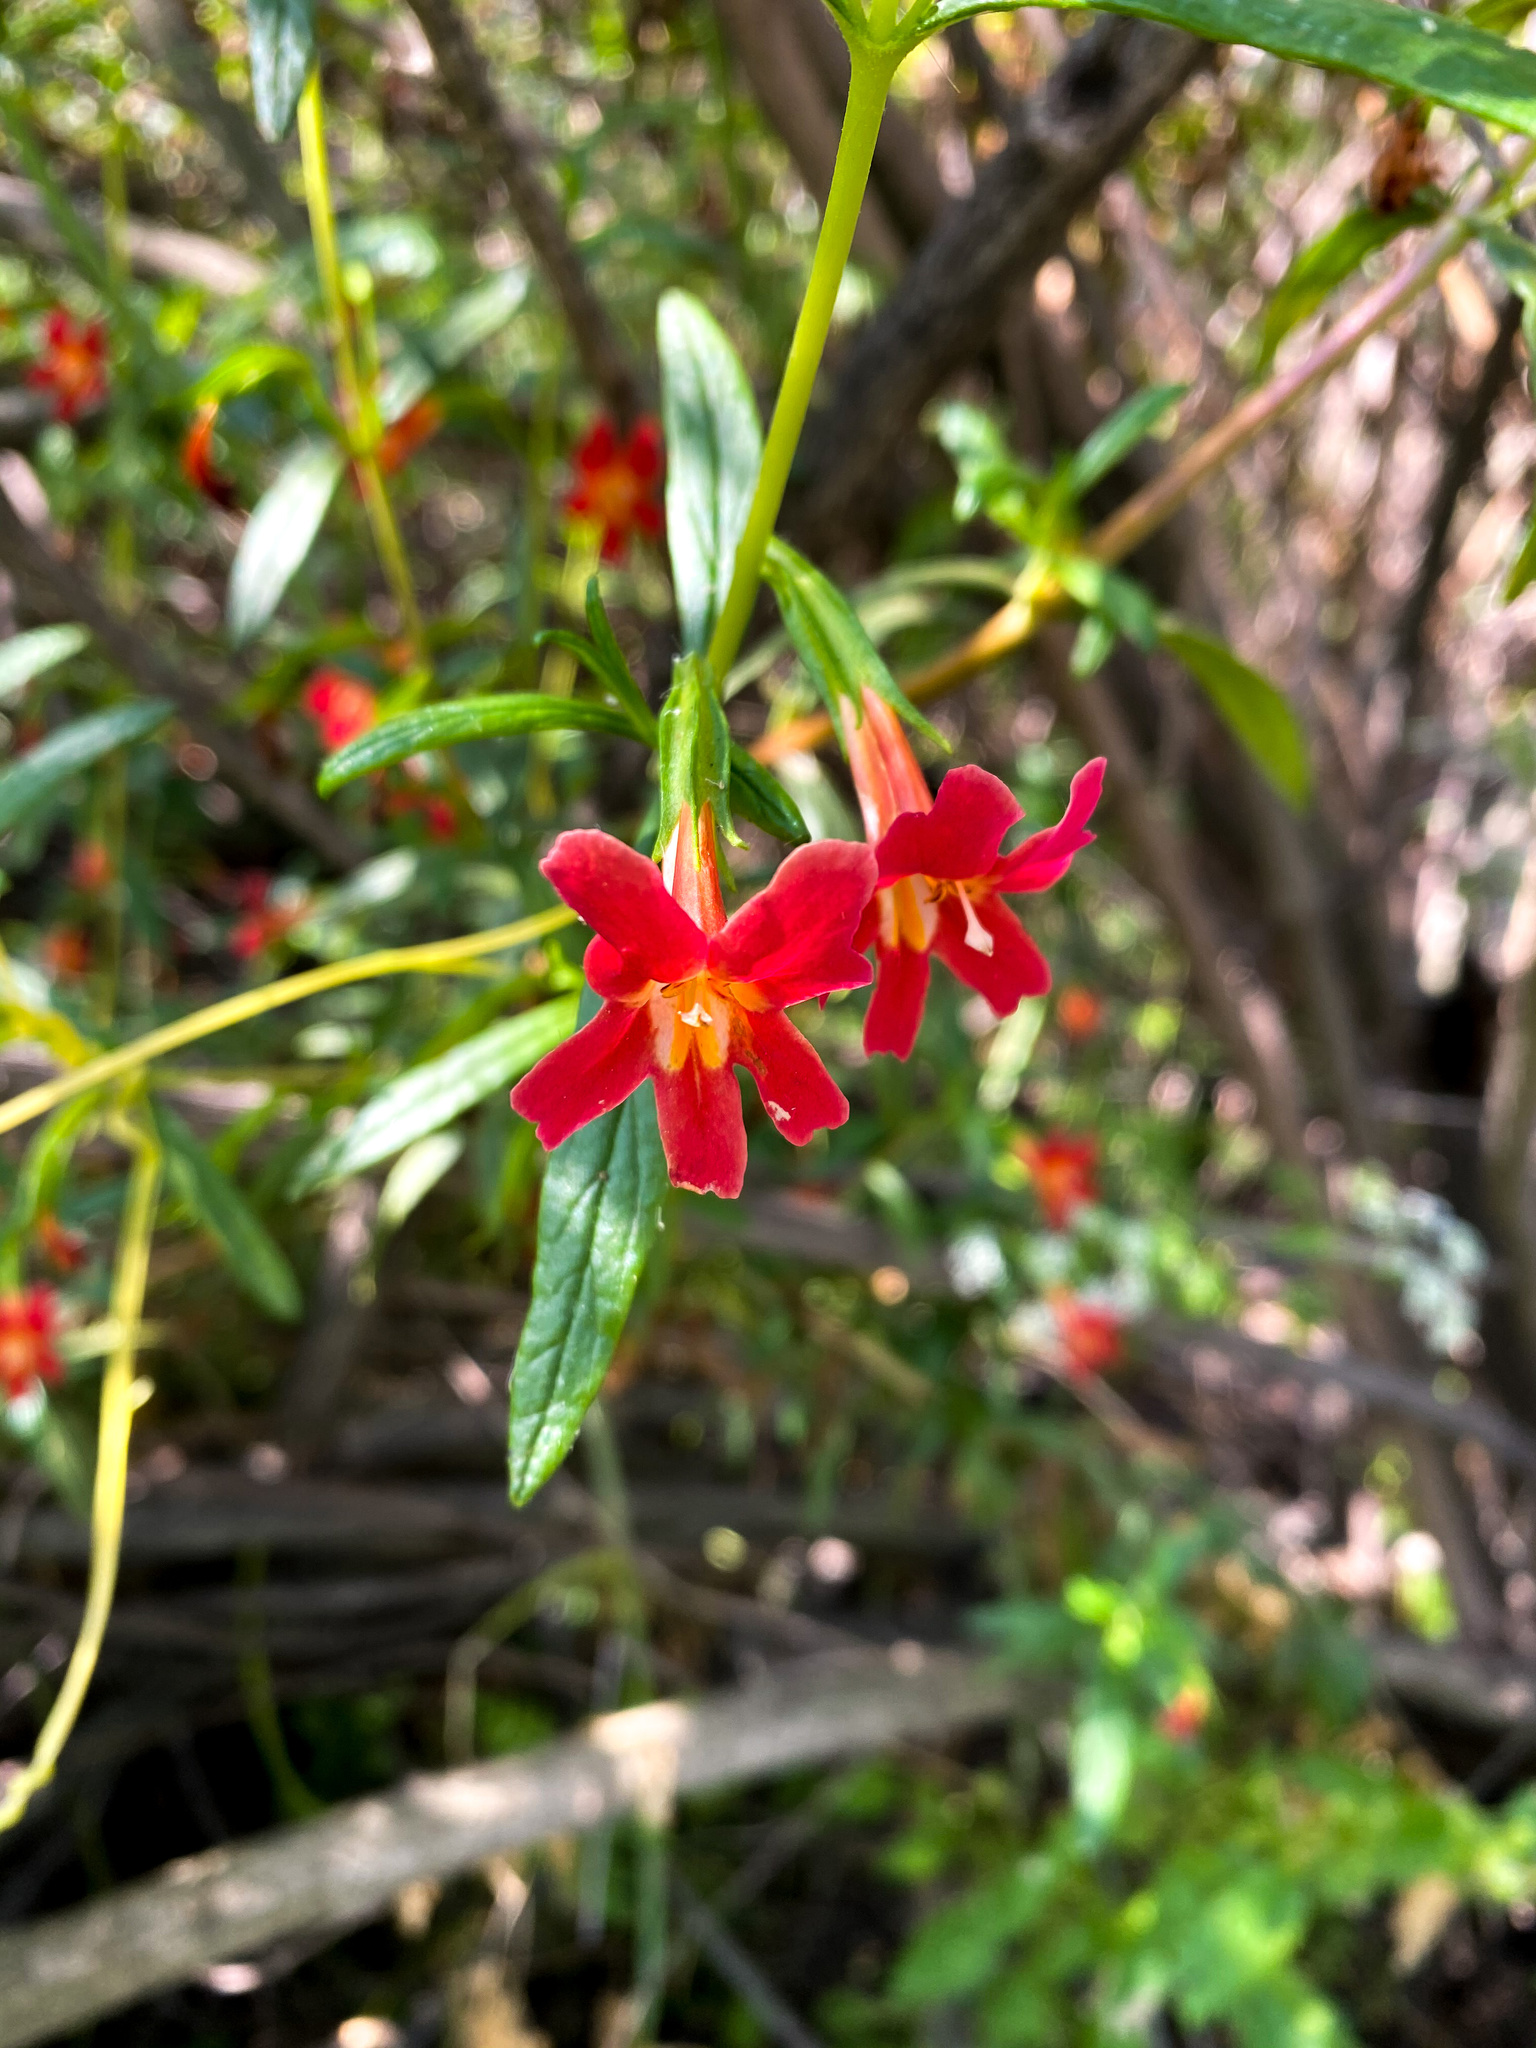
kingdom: Plantae
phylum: Tracheophyta
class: Magnoliopsida
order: Lamiales
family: Phrymaceae
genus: Diplacus
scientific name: Diplacus puniceus
